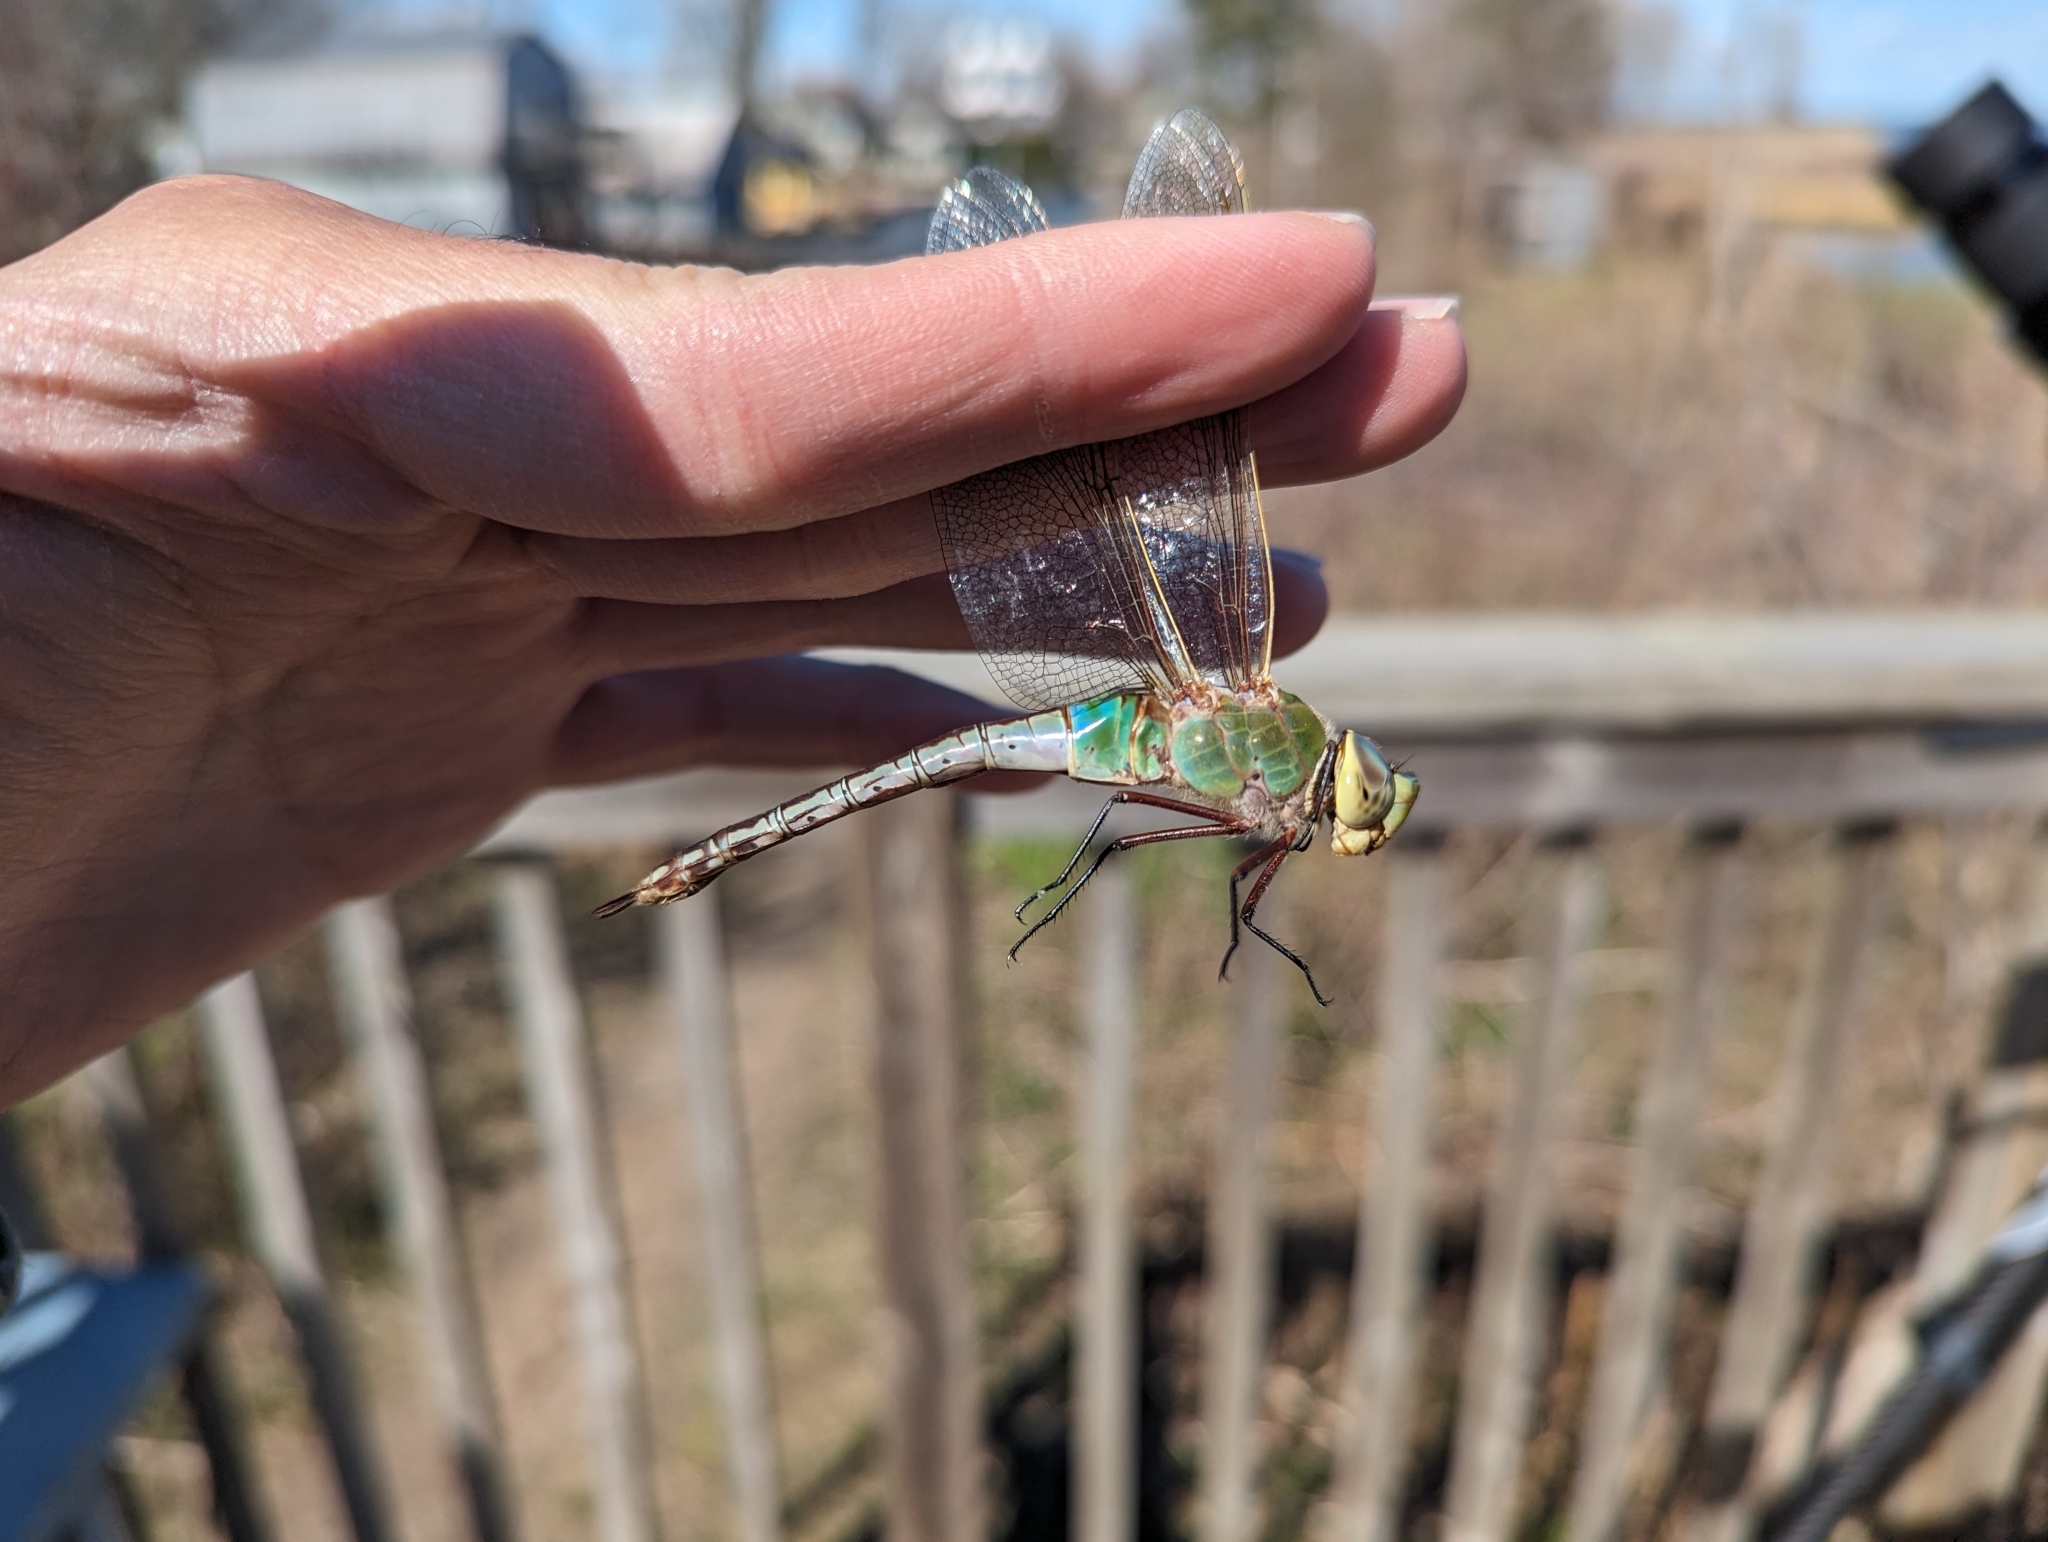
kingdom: Animalia
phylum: Arthropoda
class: Insecta
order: Odonata
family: Aeshnidae
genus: Anax
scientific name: Anax junius
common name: Common green darner
